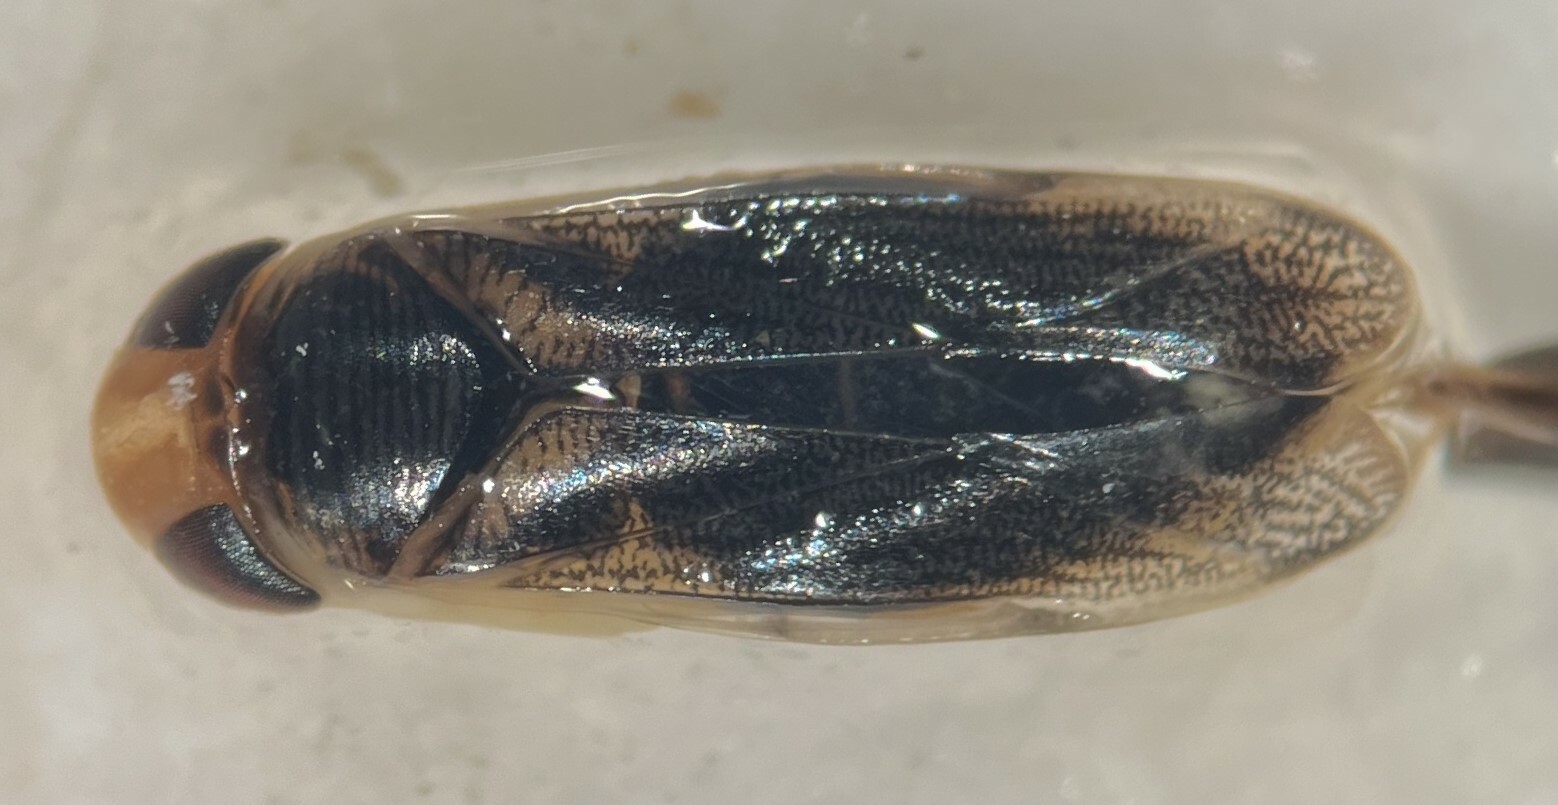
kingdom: Animalia
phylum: Arthropoda
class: Insecta
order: Hemiptera
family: Corixidae
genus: Corisella
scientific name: Corisella edulis
